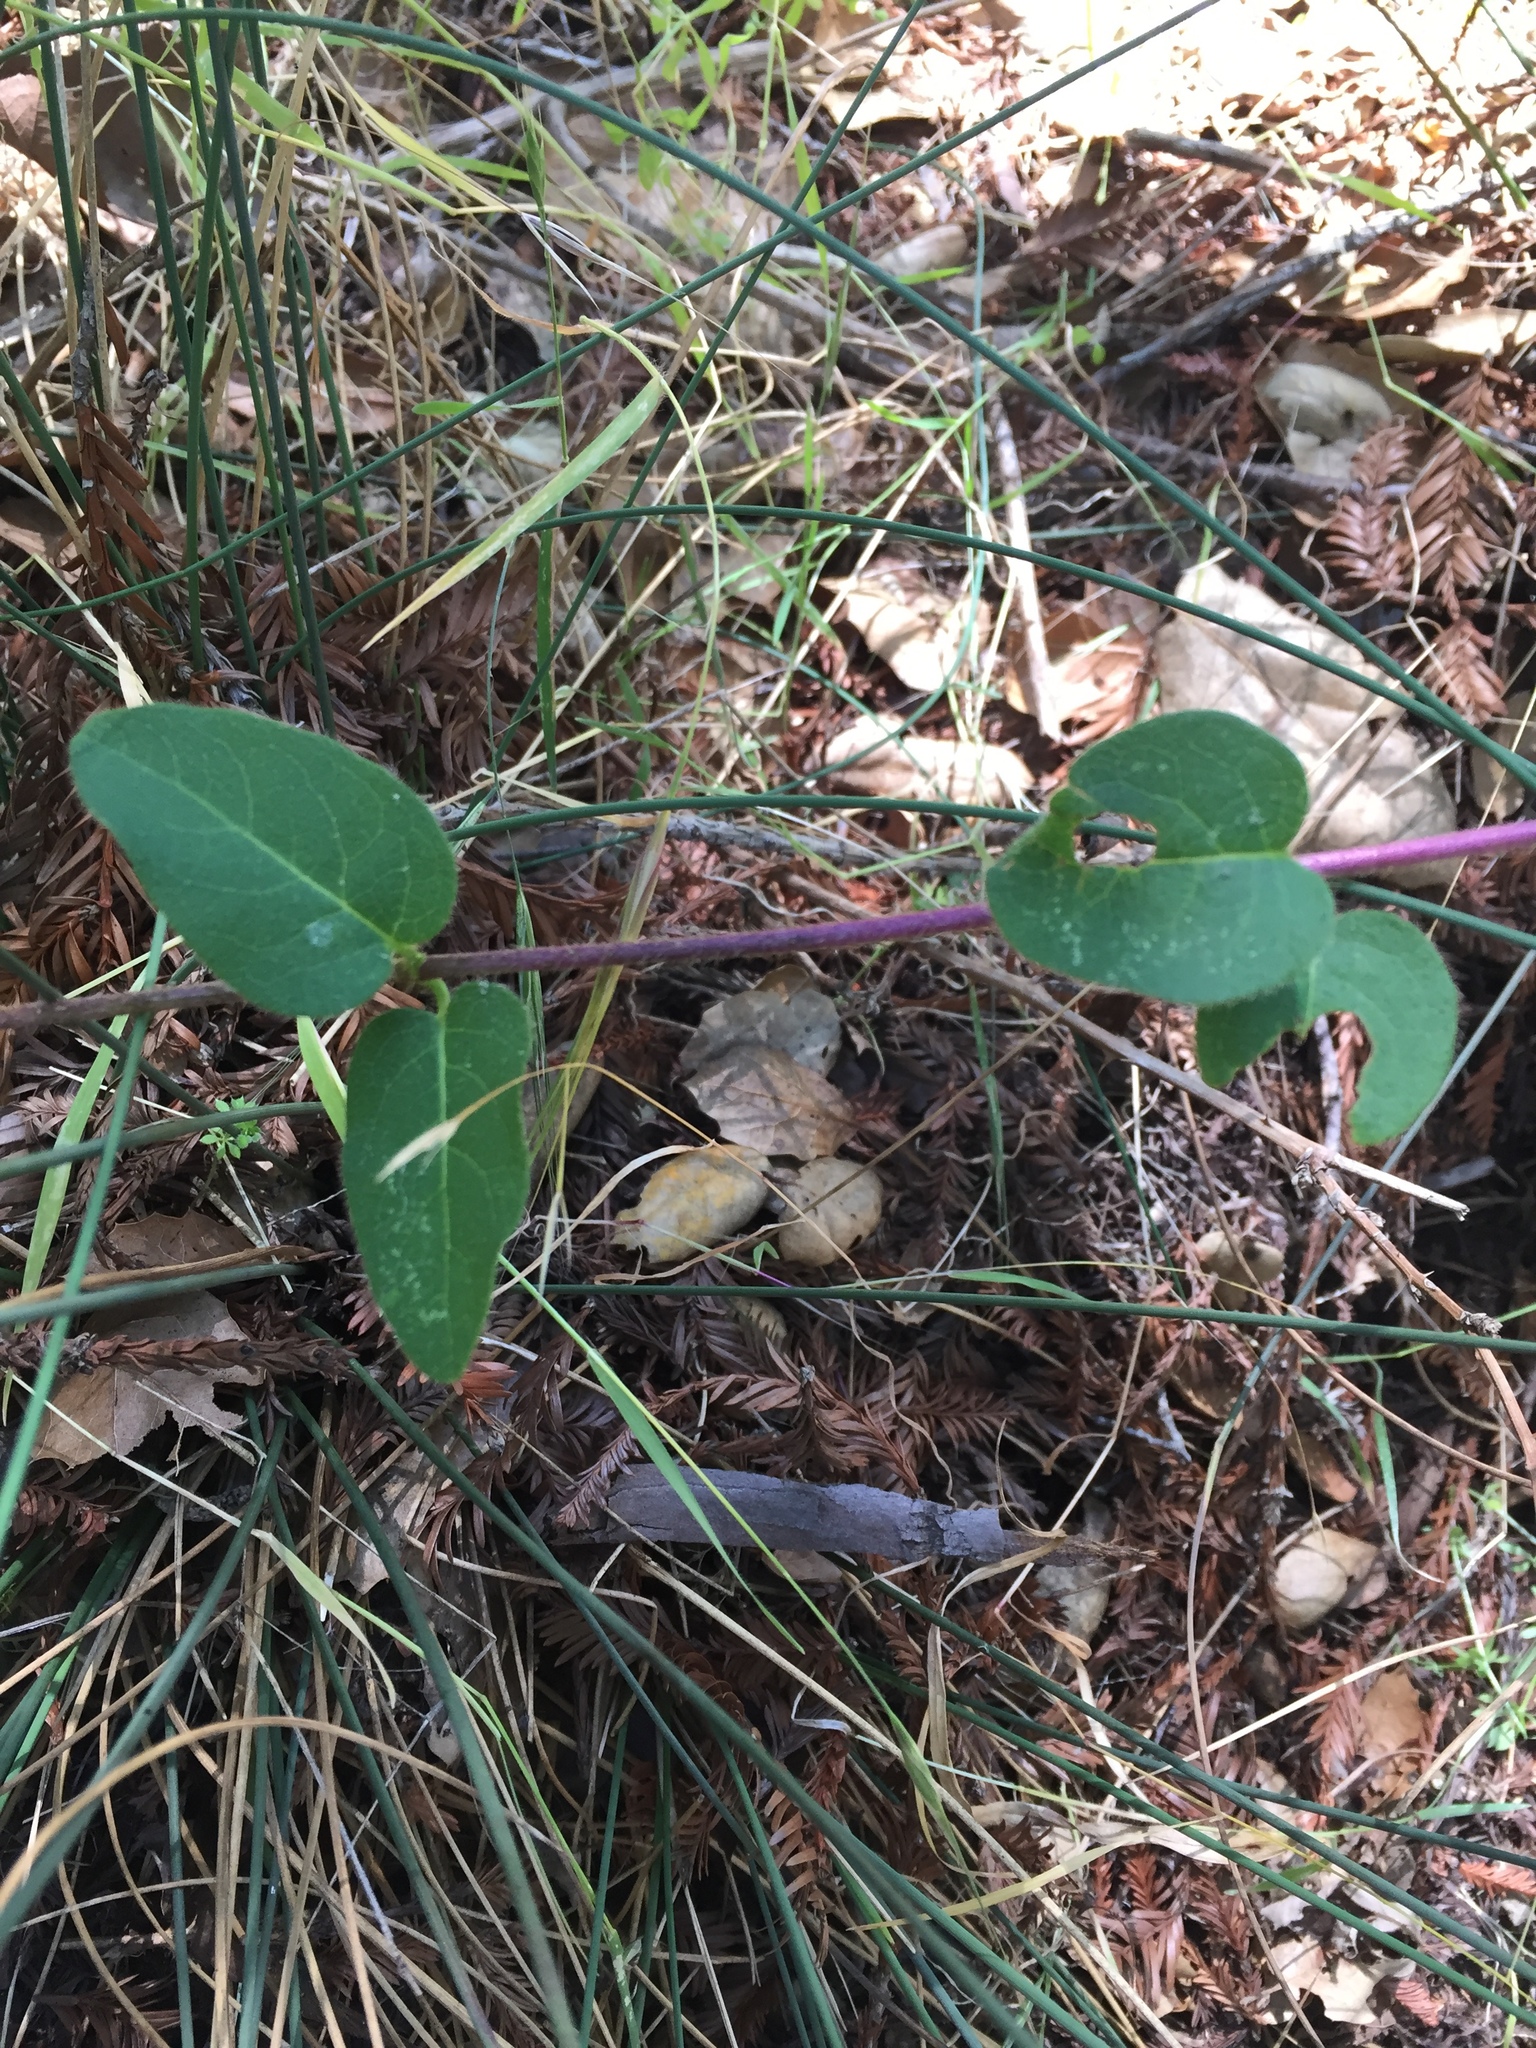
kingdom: Plantae
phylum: Tracheophyta
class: Magnoliopsida
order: Dipsacales
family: Caprifoliaceae
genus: Lonicera
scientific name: Lonicera hispidula
